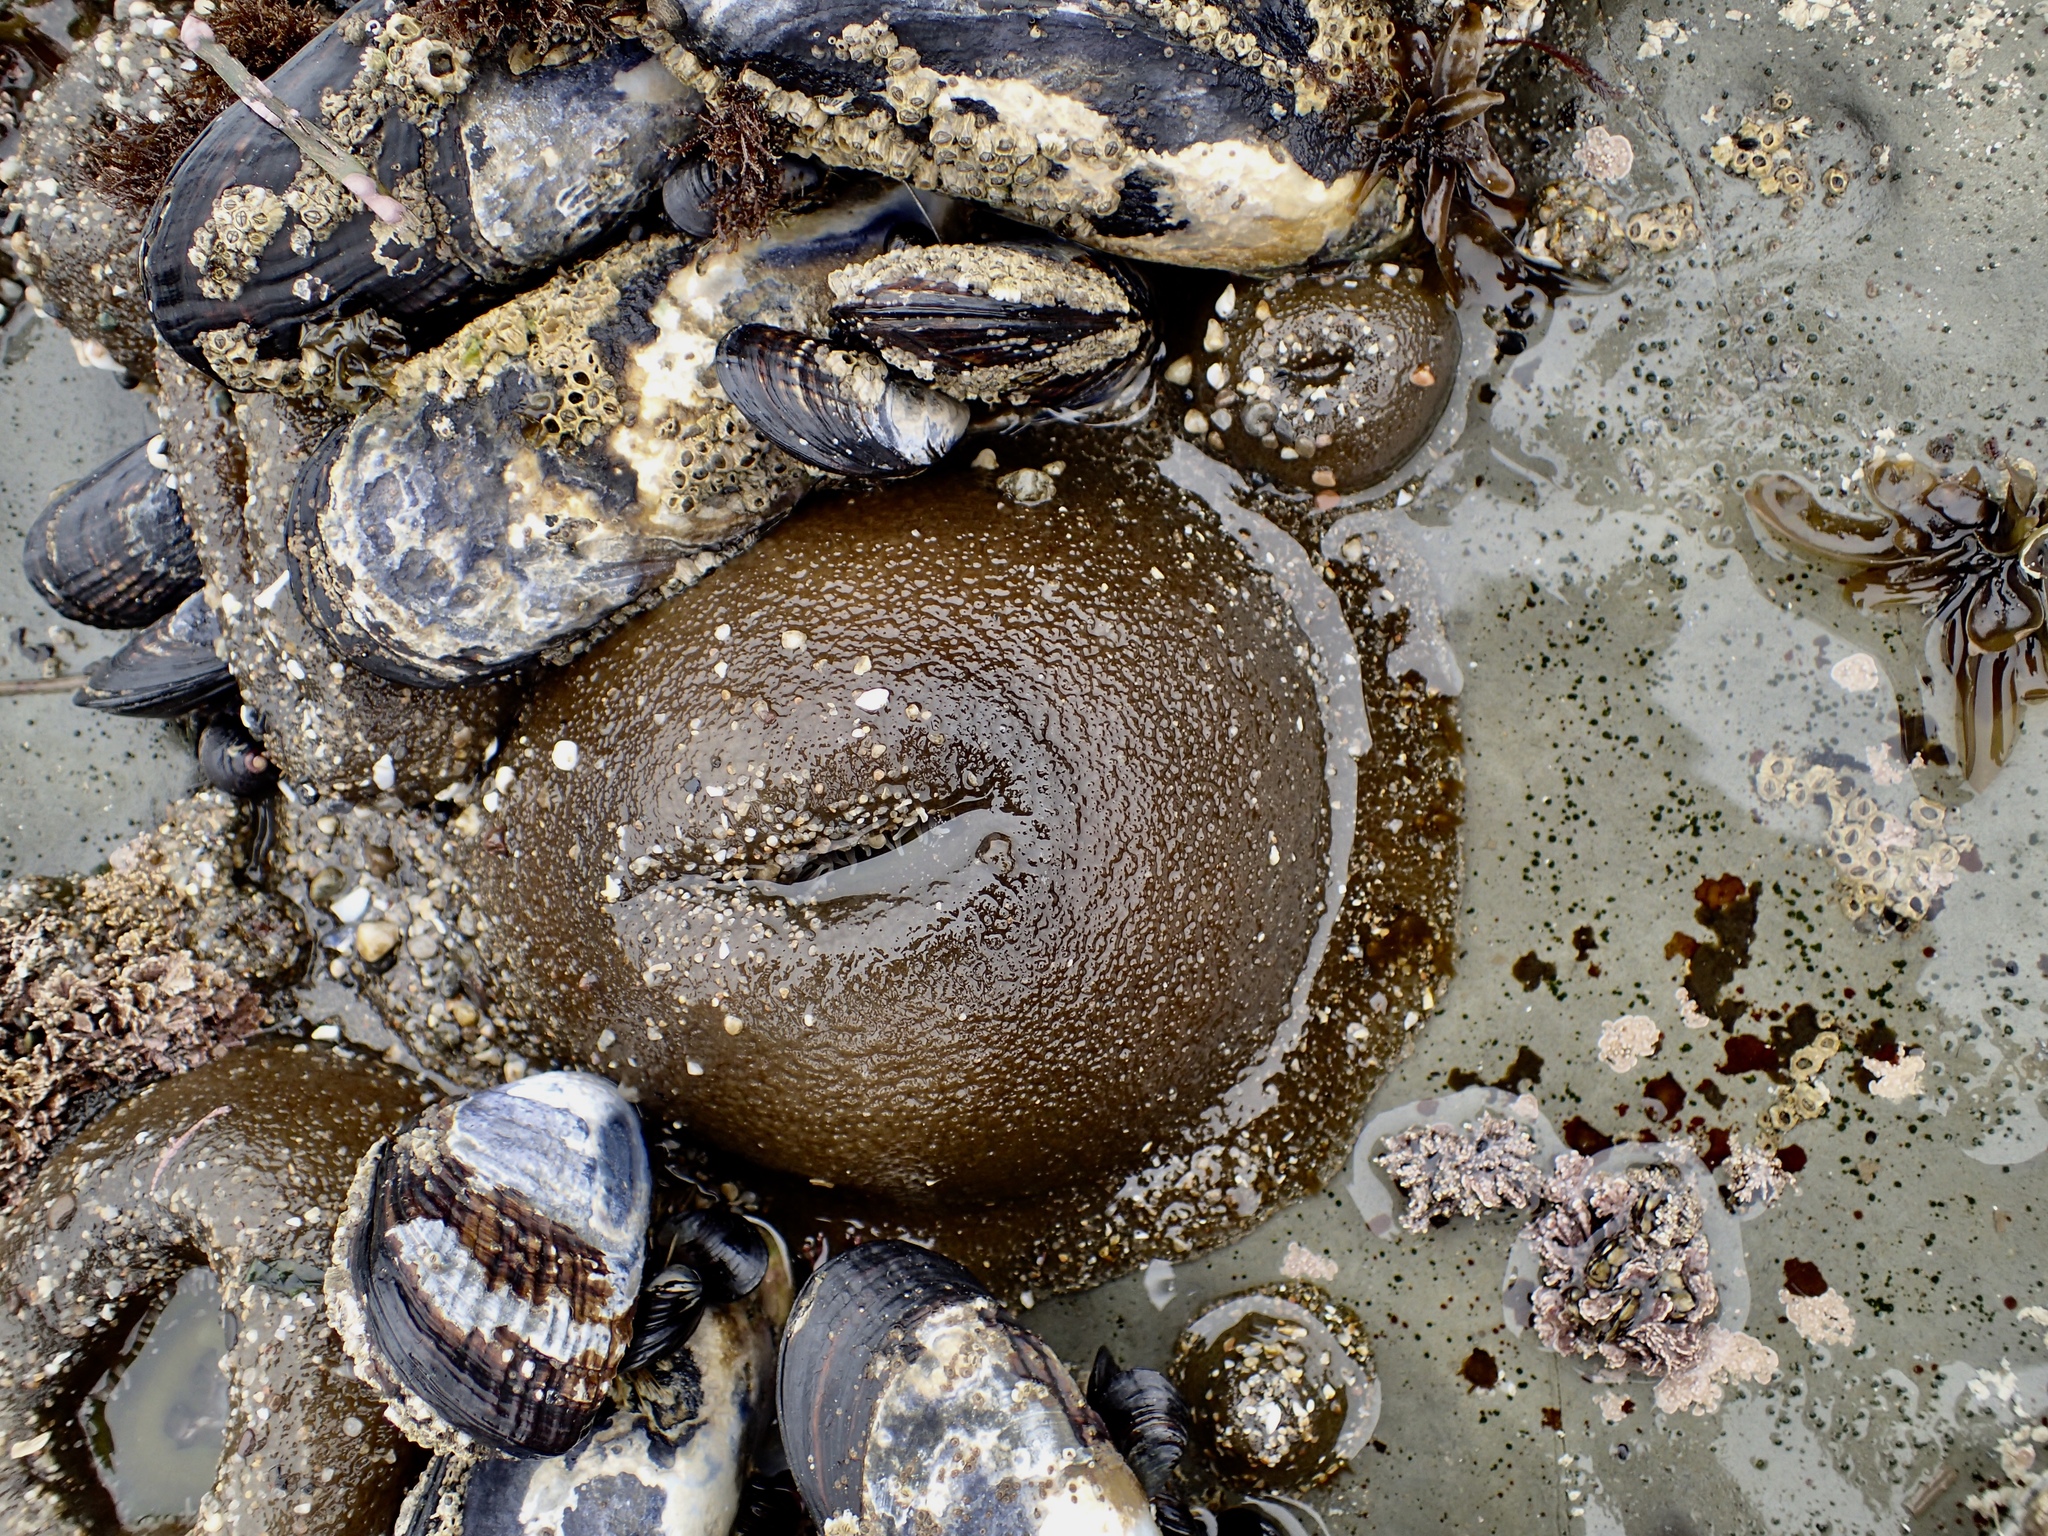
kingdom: Animalia
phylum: Cnidaria
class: Anthozoa
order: Actiniaria
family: Actiniidae
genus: Anthopleura
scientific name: Anthopleura xanthogrammica
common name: Giant green anemone
